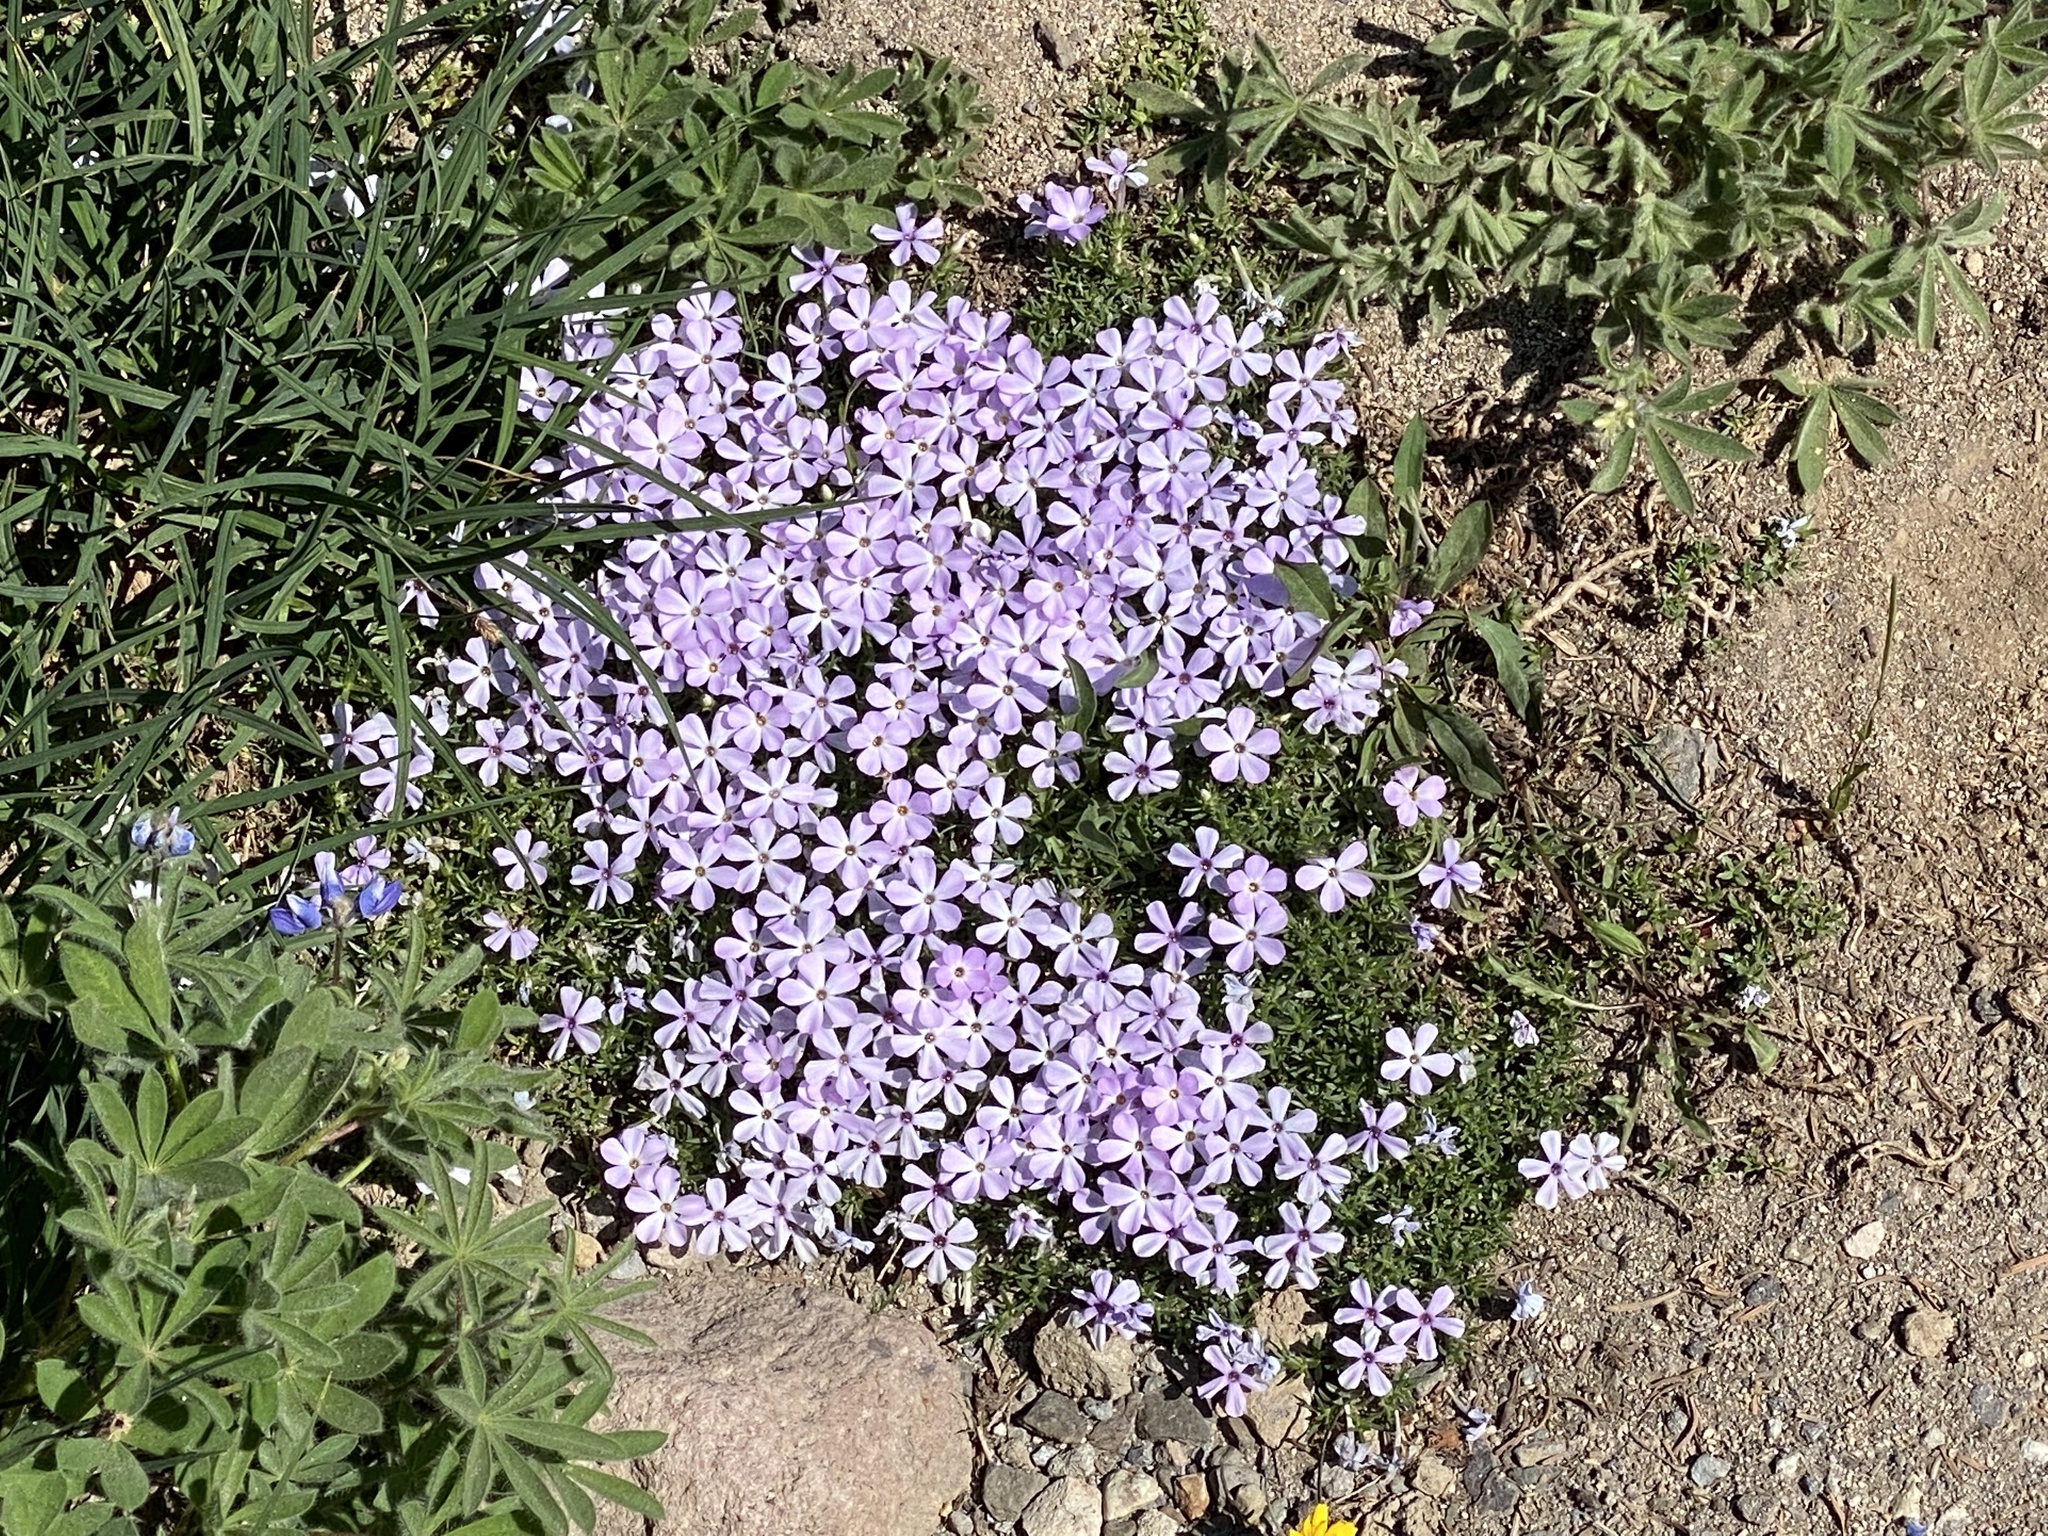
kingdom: Plantae
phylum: Tracheophyta
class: Magnoliopsida
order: Ericales
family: Polemoniaceae
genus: Phlox
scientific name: Phlox diffusa
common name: Mat phlox
